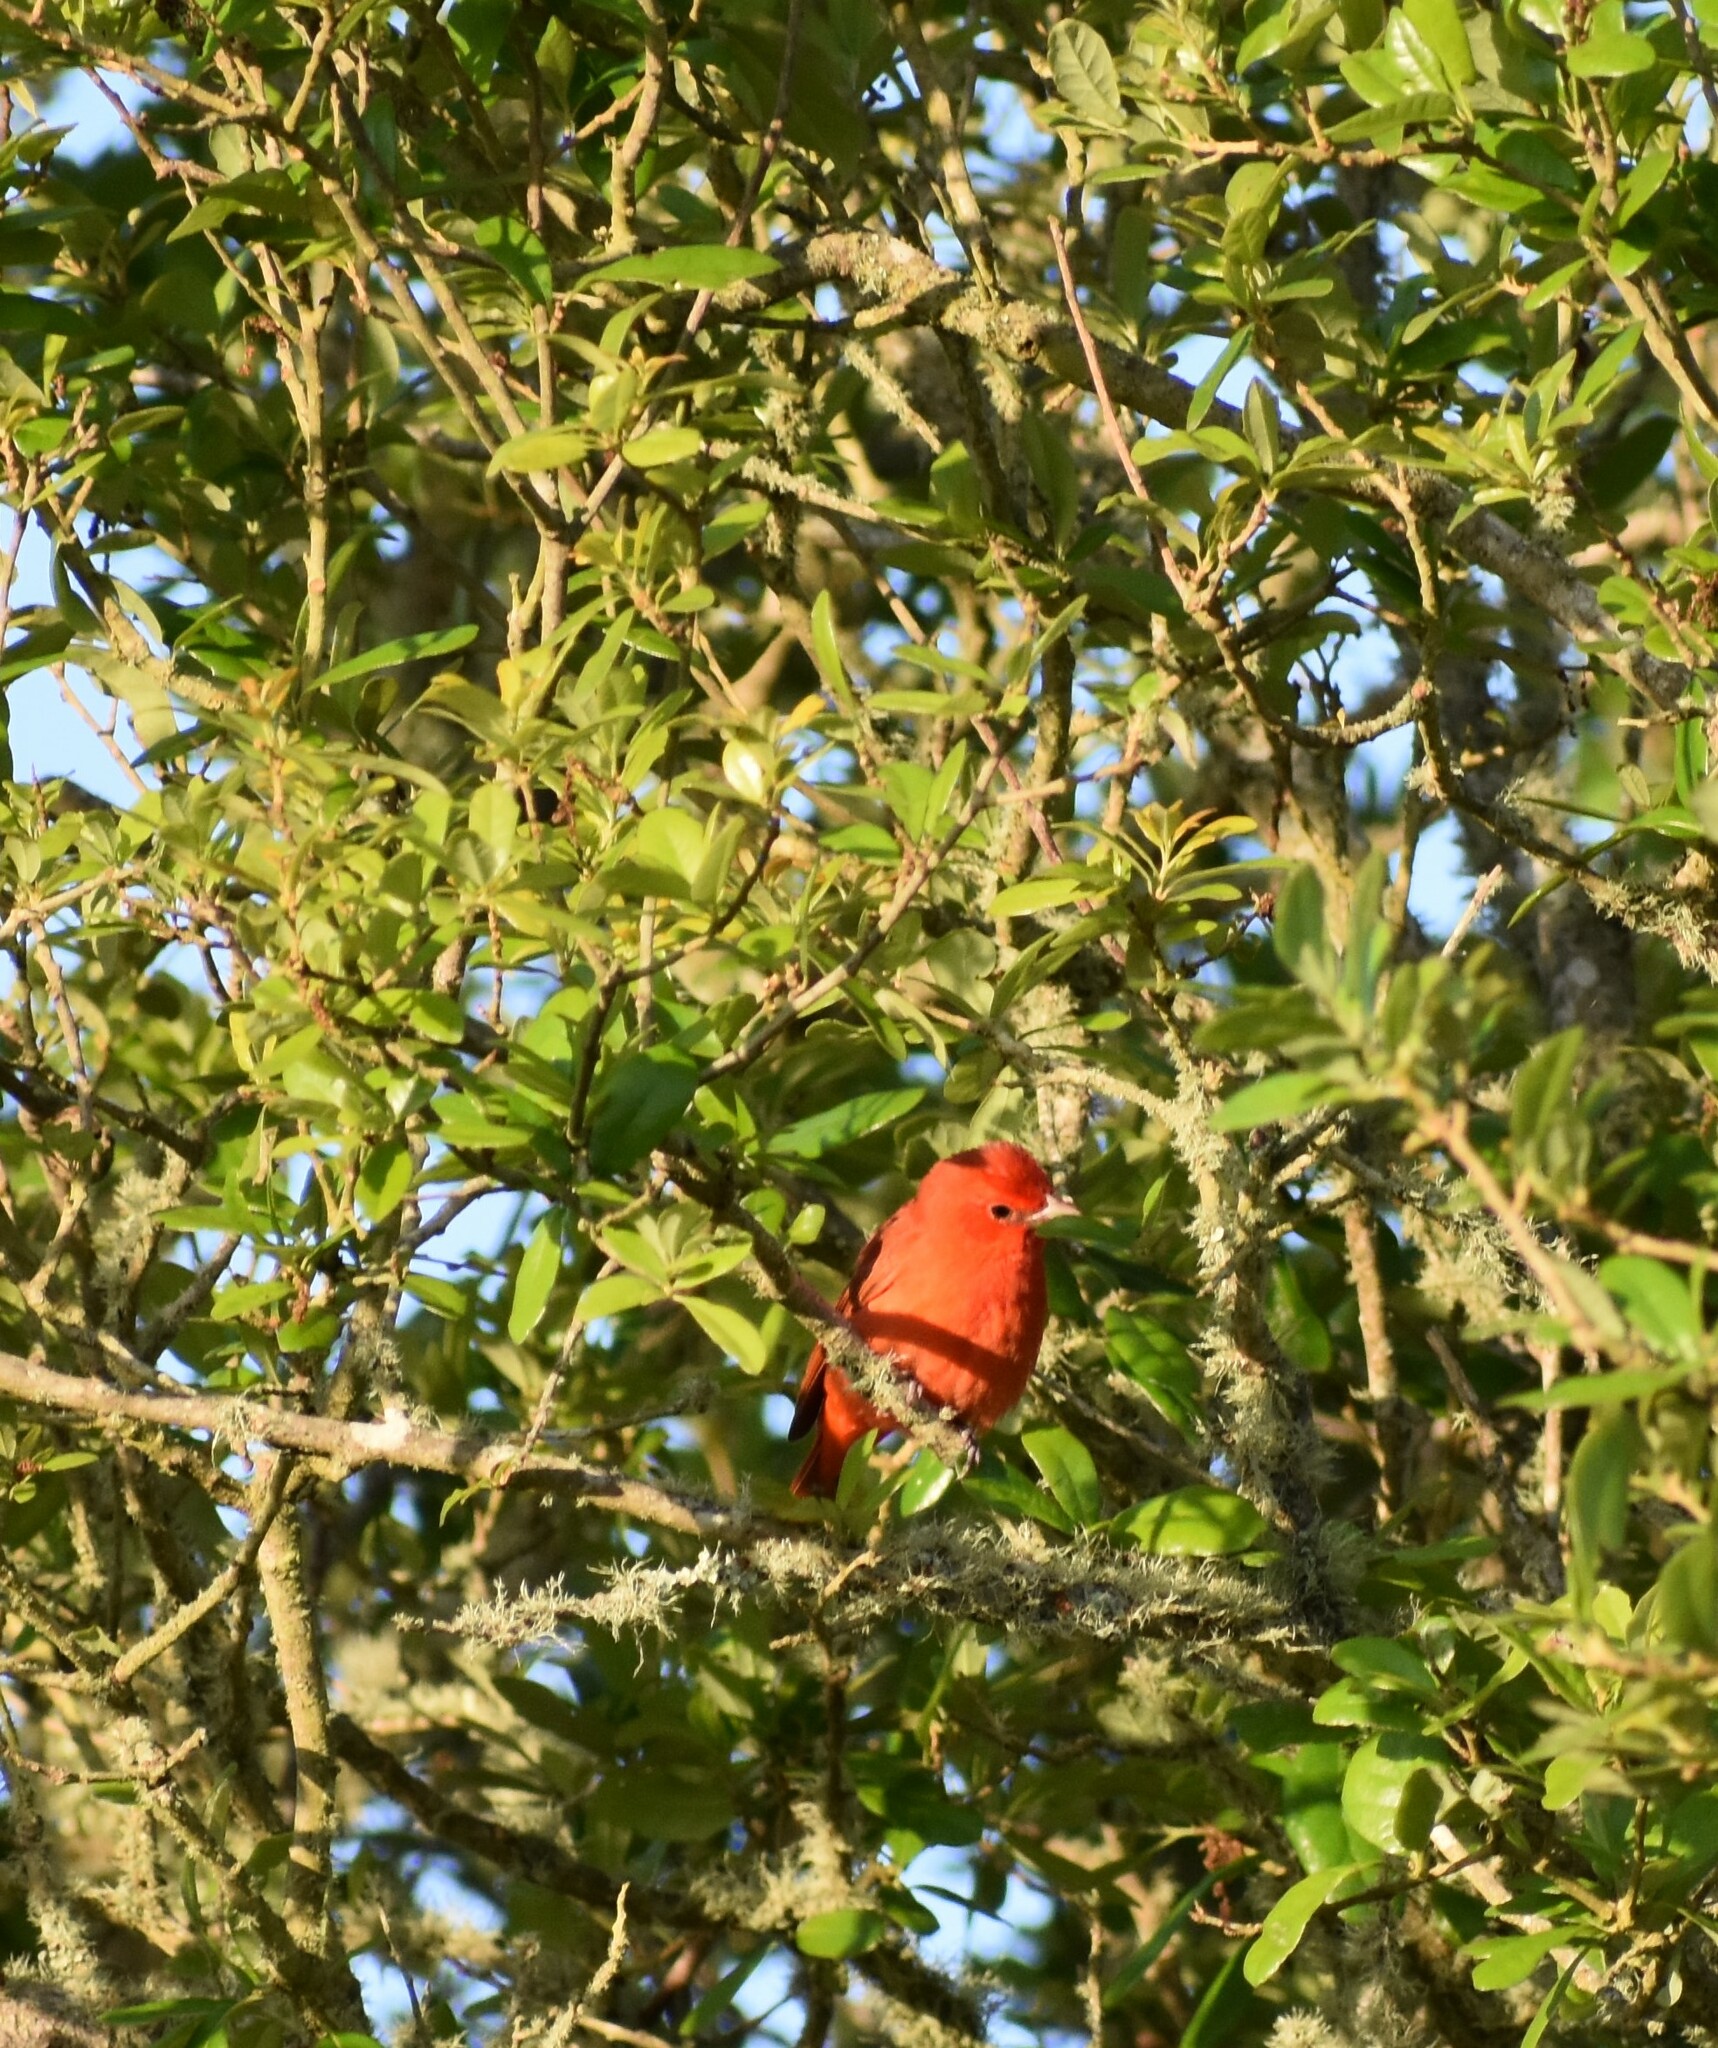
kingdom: Animalia
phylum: Chordata
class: Aves
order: Passeriformes
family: Cardinalidae
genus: Piranga
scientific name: Piranga rubra
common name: Summer tanager
